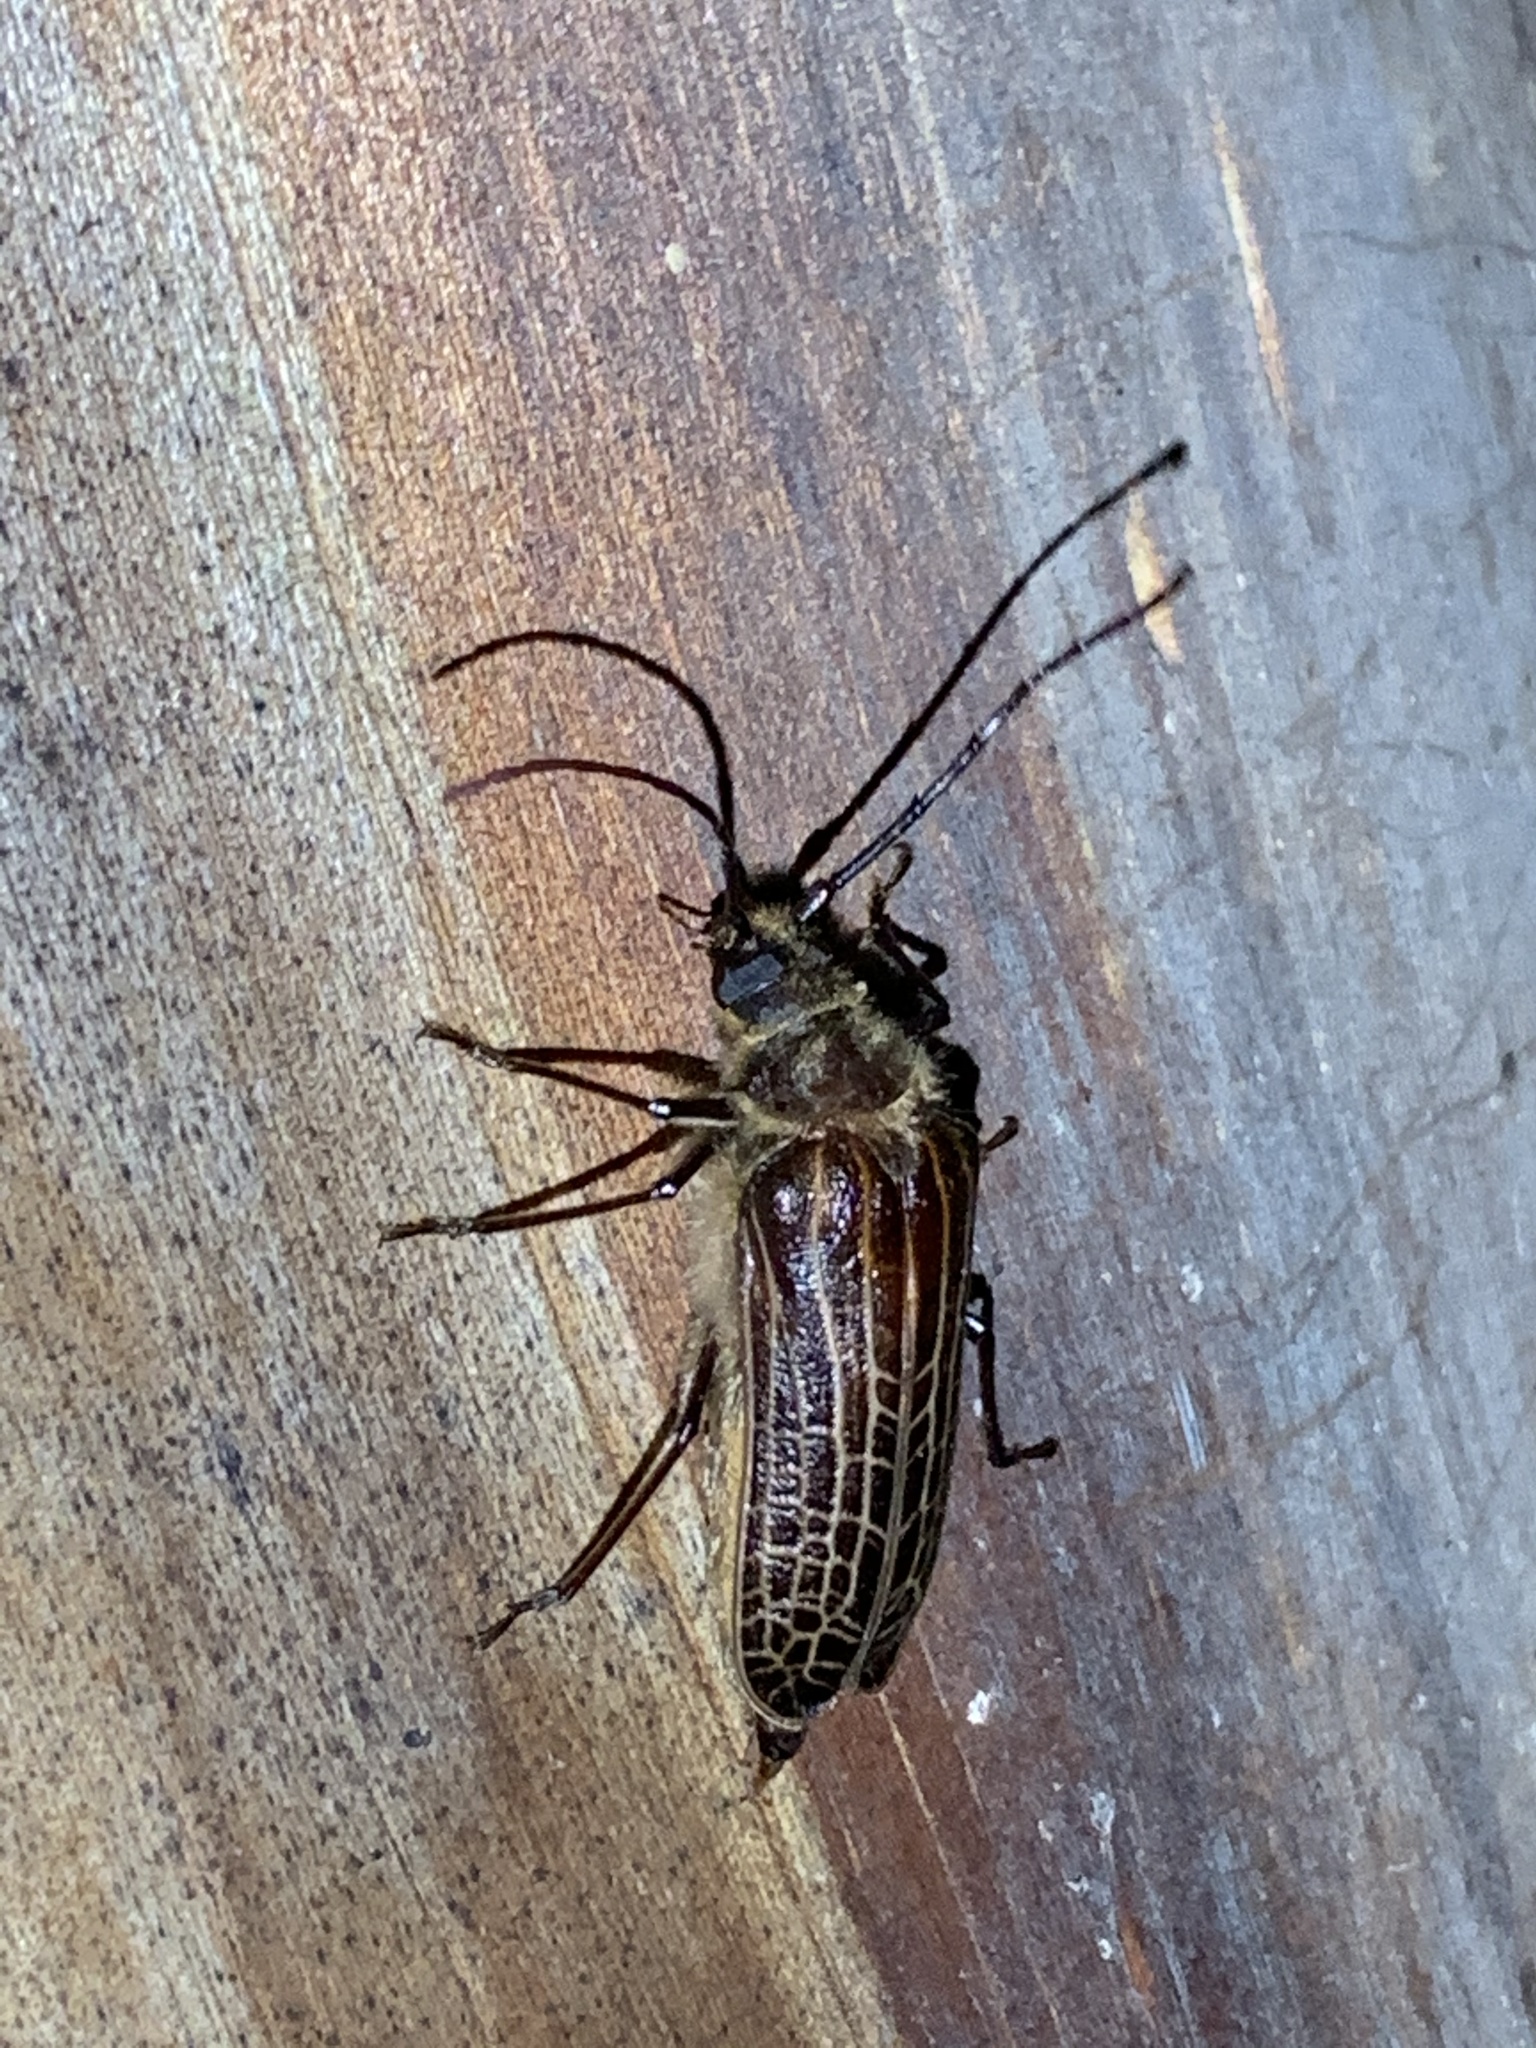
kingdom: Animalia
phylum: Arthropoda
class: Insecta
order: Coleoptera
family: Cerambycidae
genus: Prionoplus
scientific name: Prionoplus reticularis
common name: Huhu beetle
